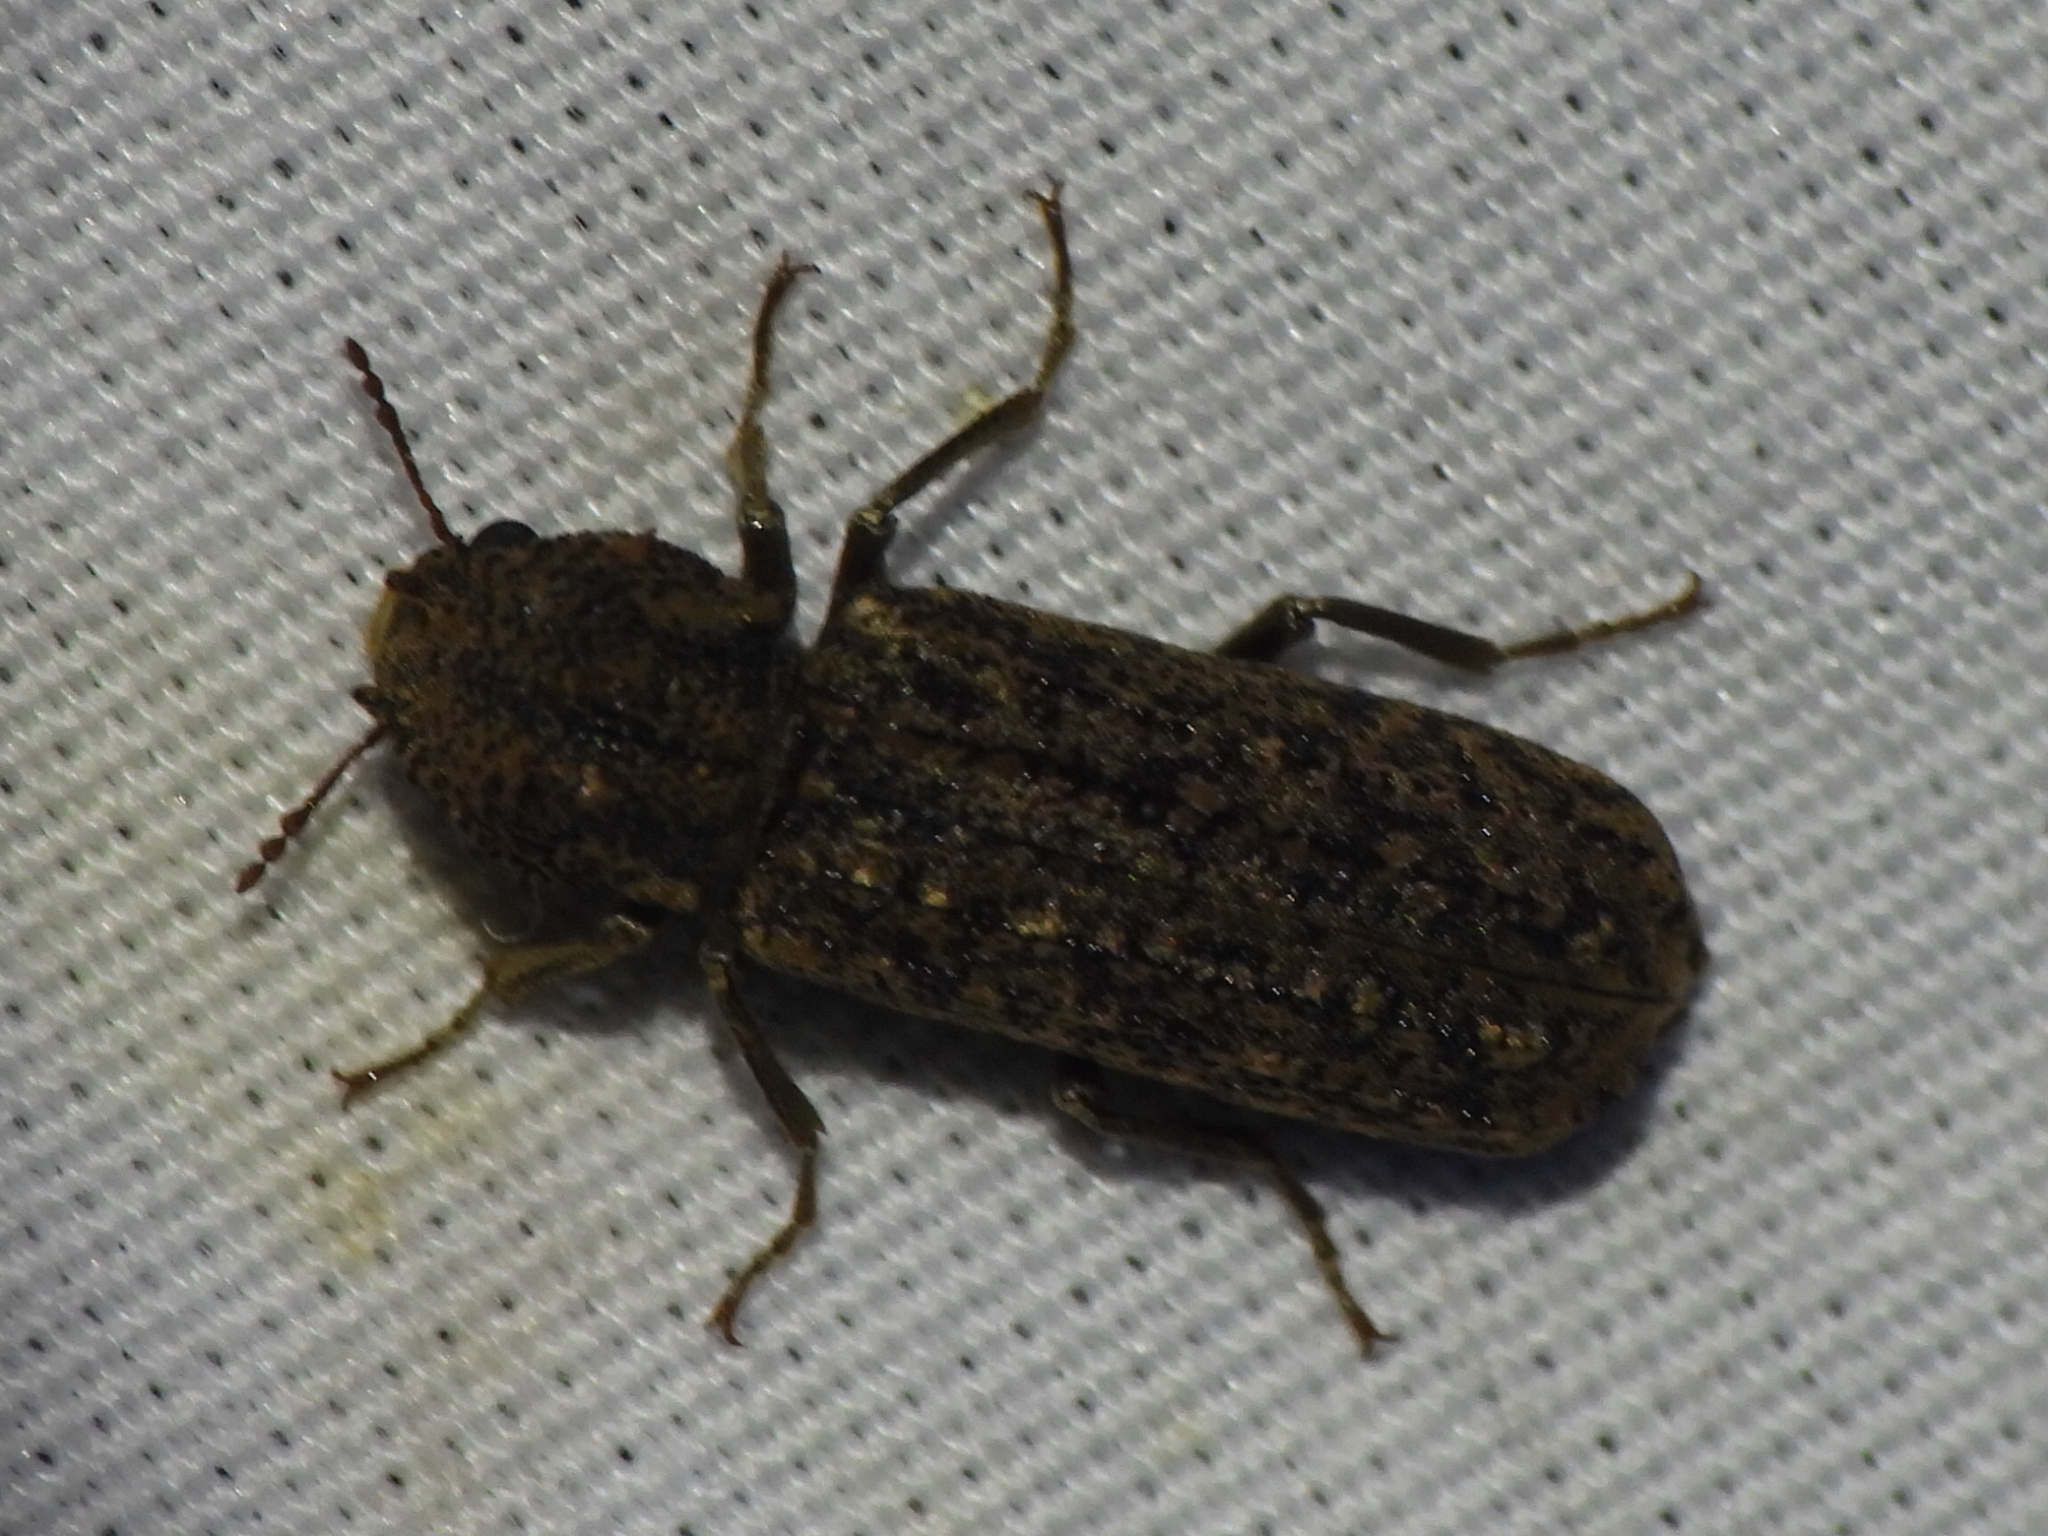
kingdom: Animalia
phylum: Arthropoda
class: Insecta
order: Coleoptera
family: Bostrichidae
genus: Lichenophanes
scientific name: Lichenophanes bicornis
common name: Two-horned powder-post beetle
